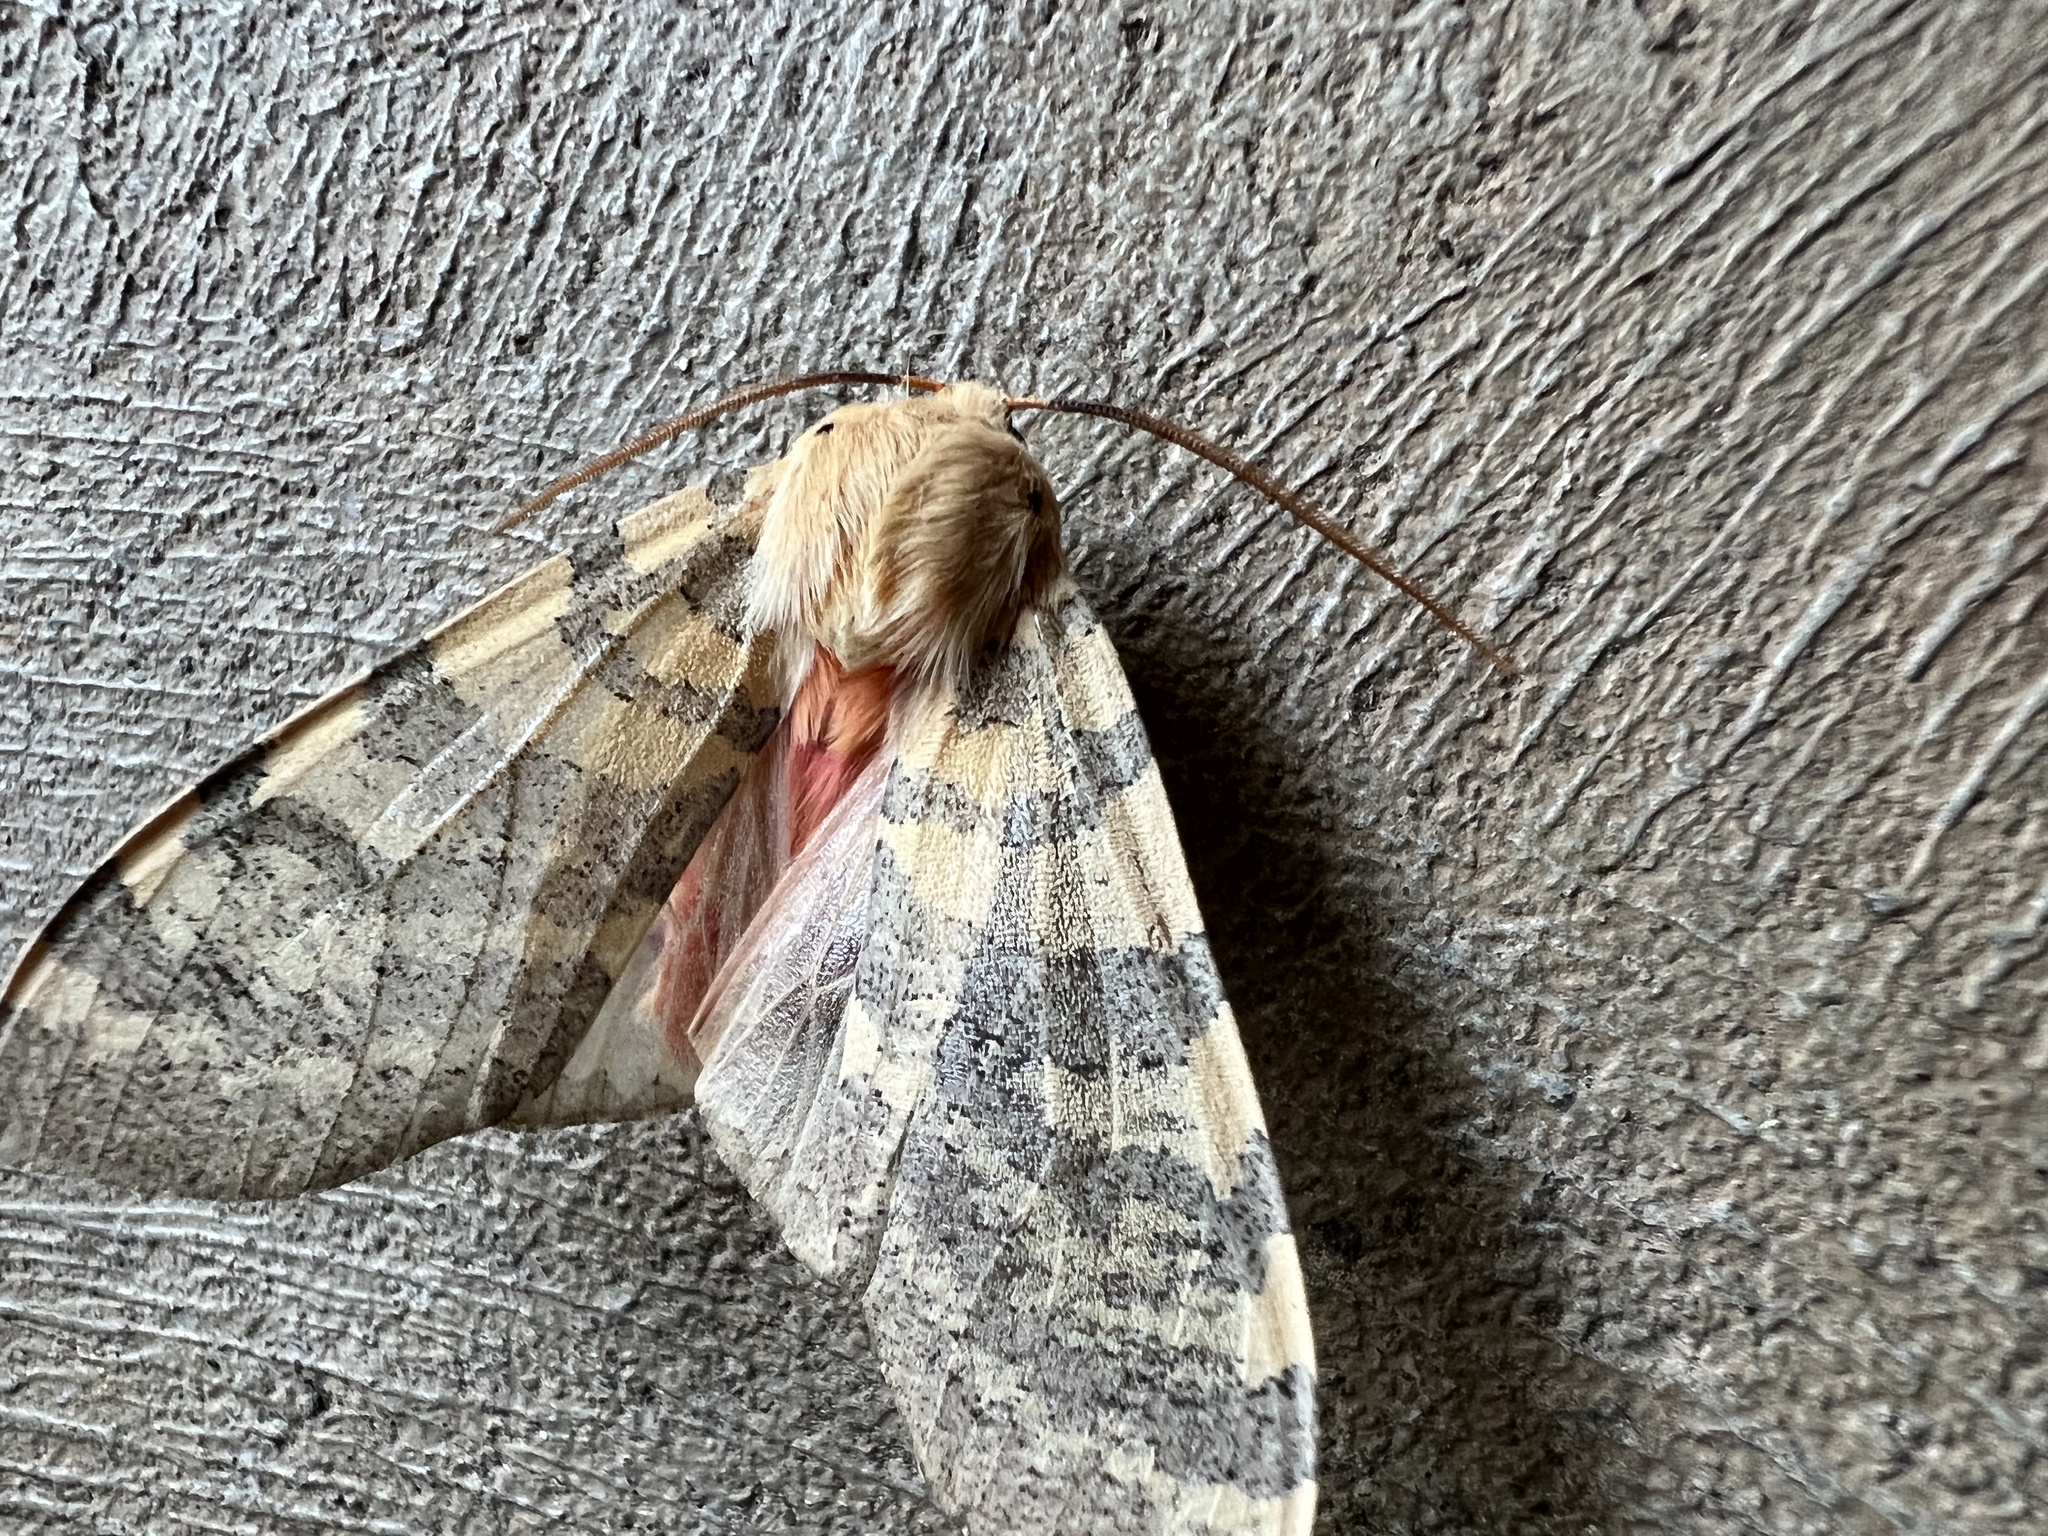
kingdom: Animalia
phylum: Arthropoda
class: Insecta
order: Lepidoptera
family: Erebidae
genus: Hemihyalea
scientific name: Hemihyalea edwardsii
